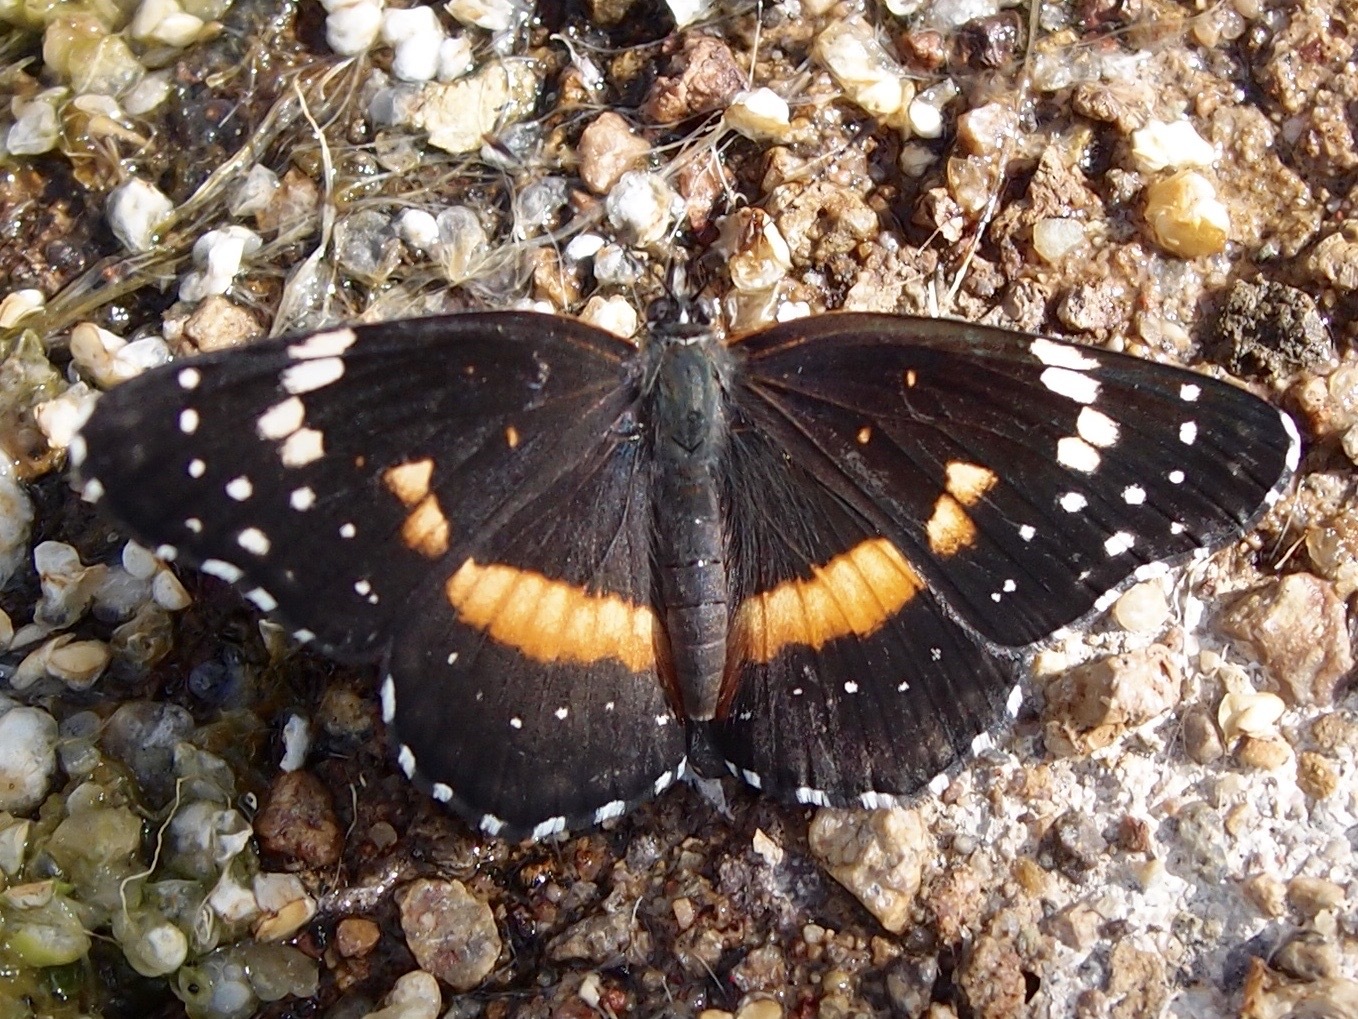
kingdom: Animalia
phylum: Arthropoda
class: Insecta
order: Lepidoptera
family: Nymphalidae
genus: Chlosyne
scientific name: Chlosyne lacinia
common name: Bordered patch
